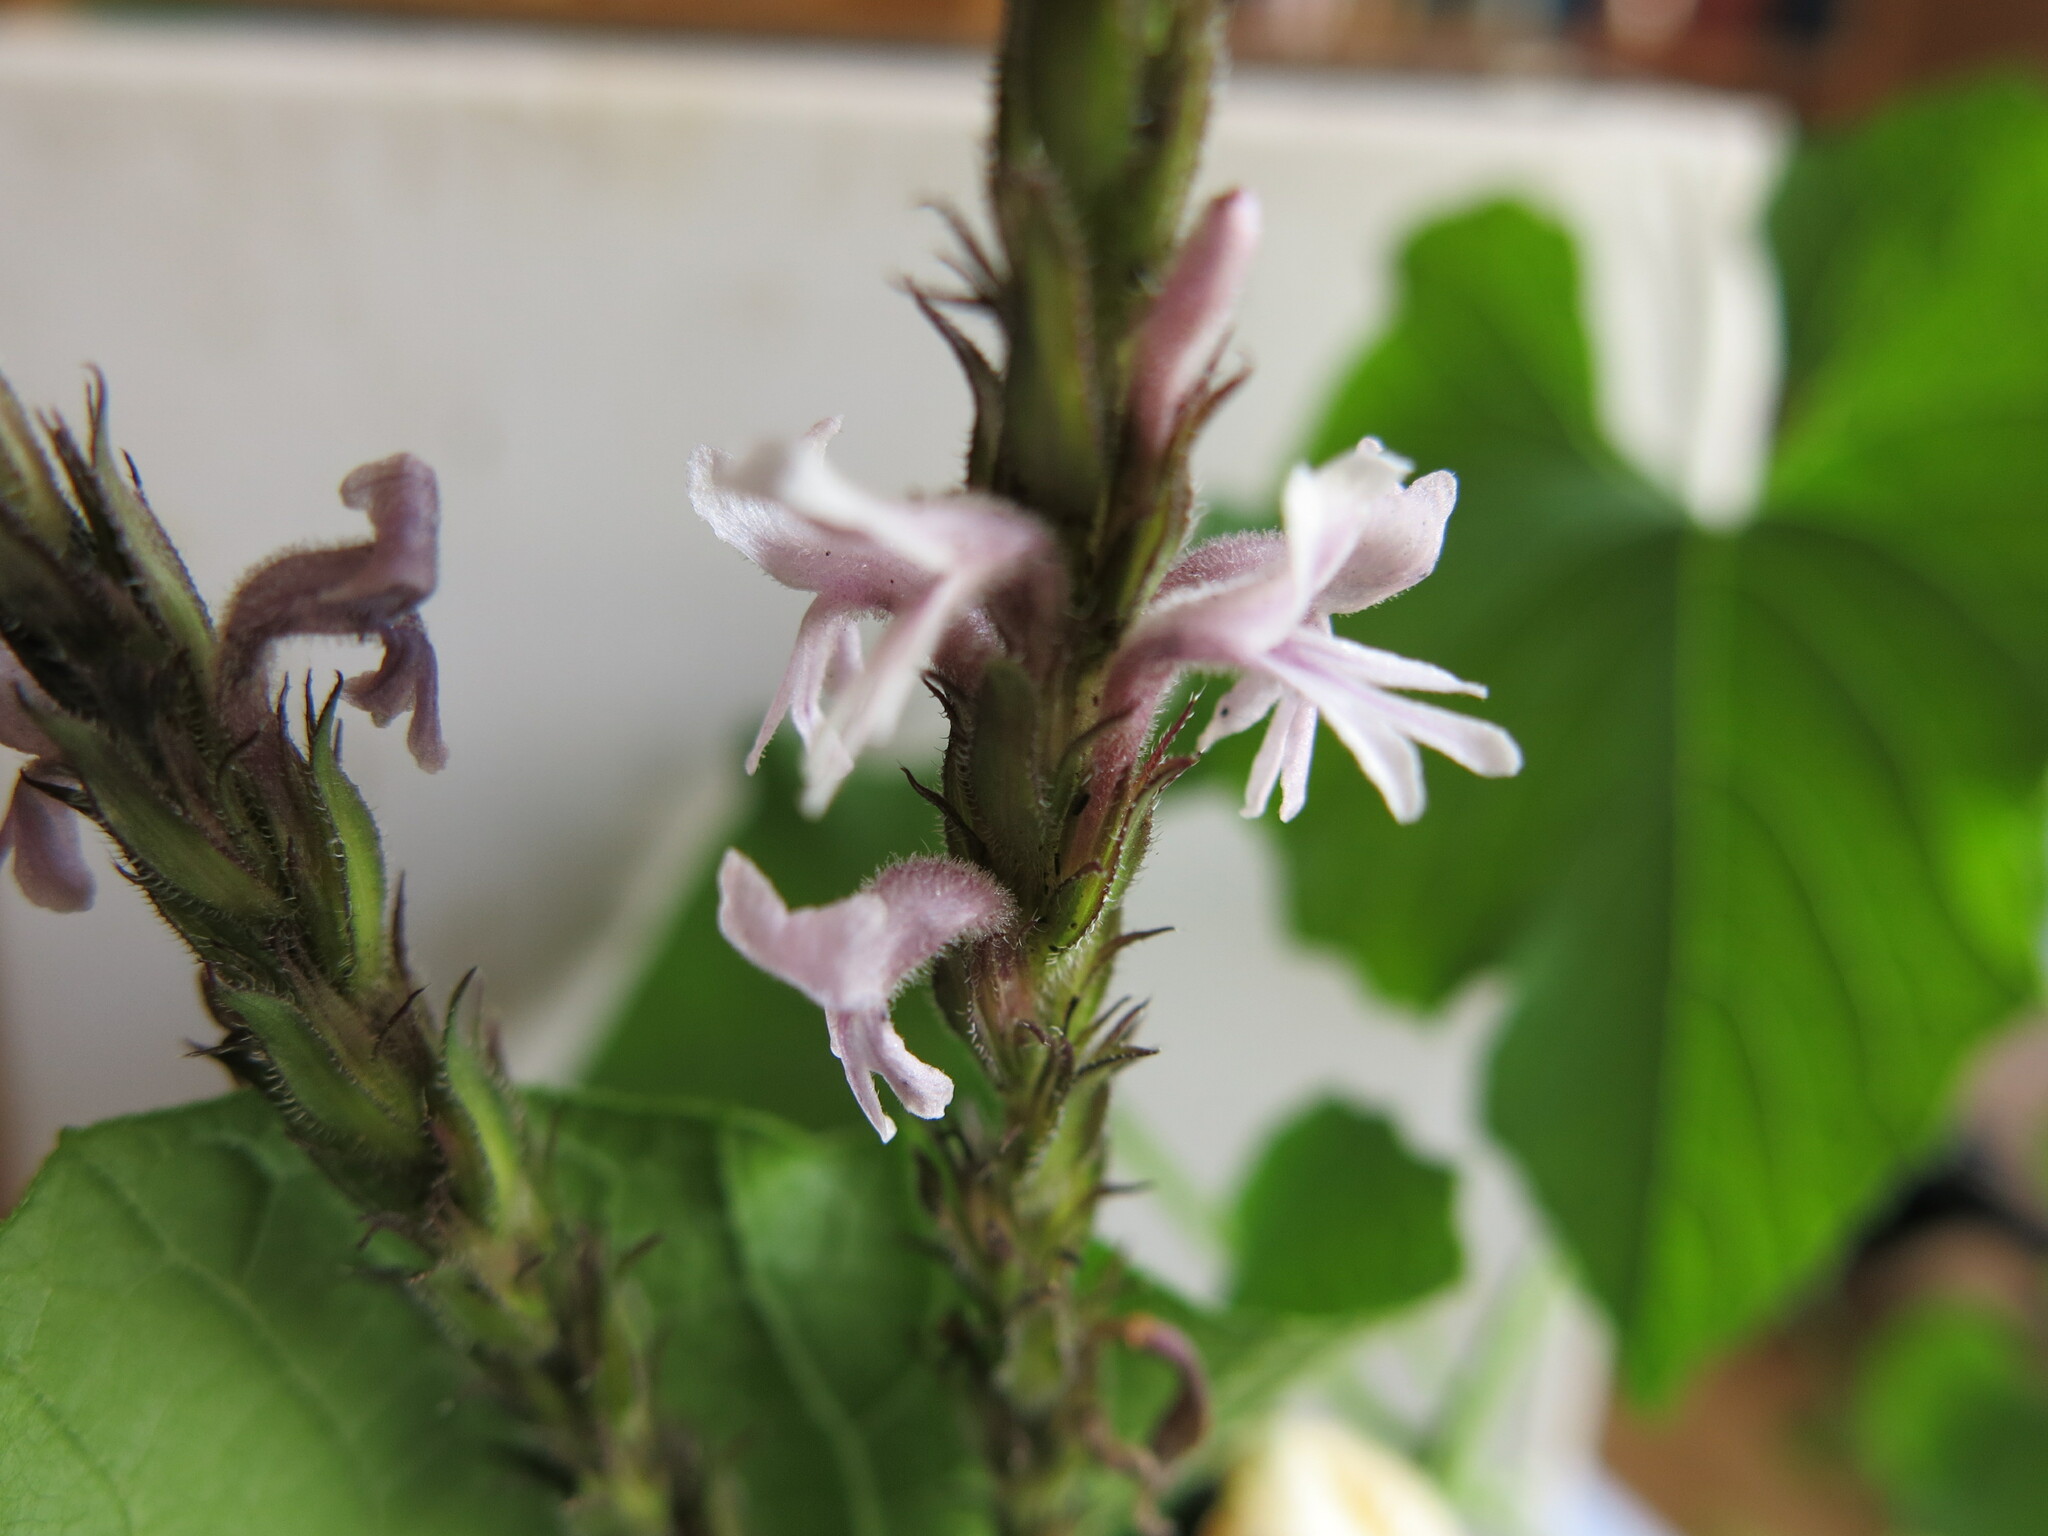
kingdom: Plantae
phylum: Tracheophyta
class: Magnoliopsida
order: Lamiales
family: Orobanchaceae
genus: Striga
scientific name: Striga bilabiata
